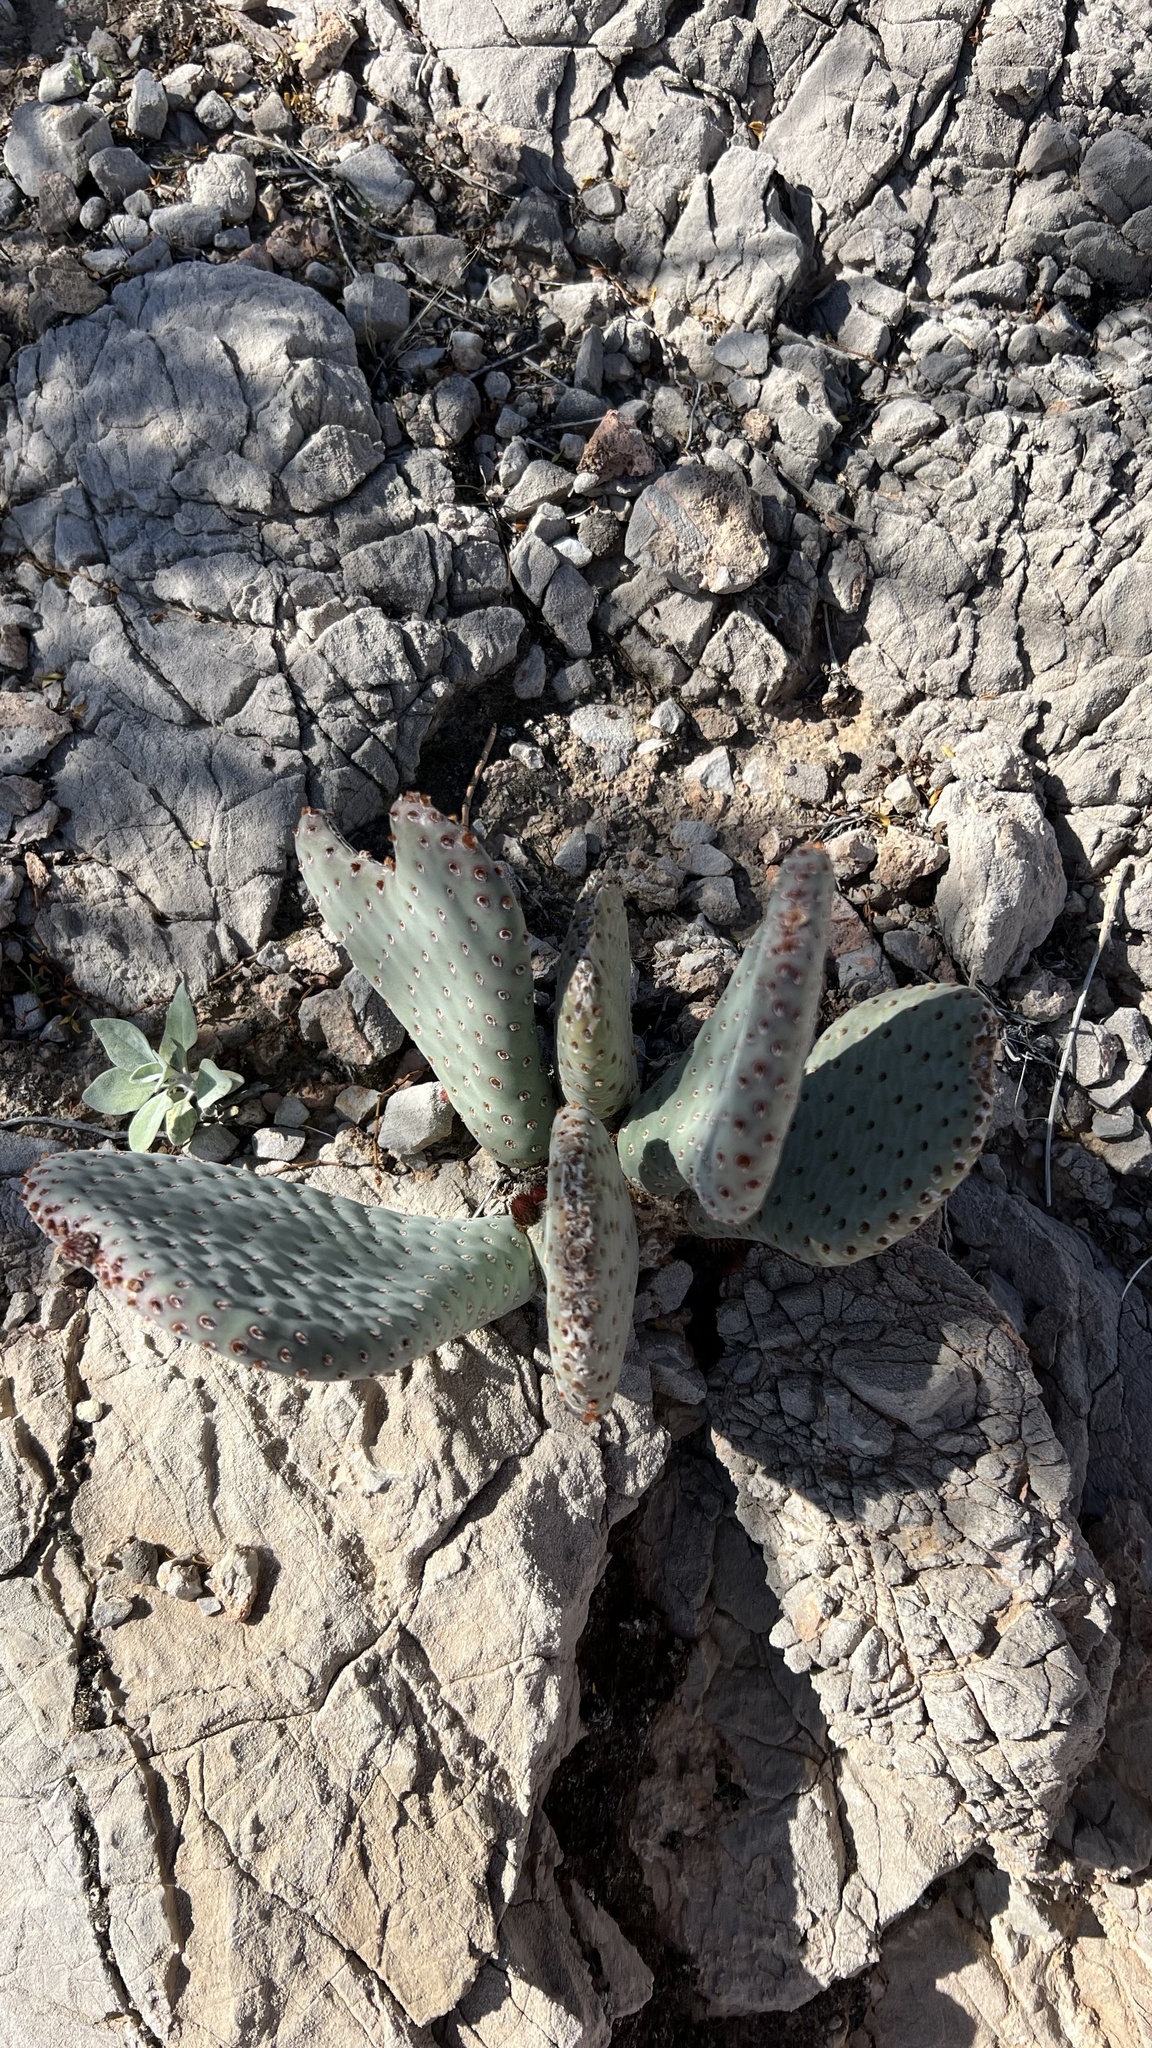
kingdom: Plantae
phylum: Tracheophyta
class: Magnoliopsida
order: Caryophyllales
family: Cactaceae
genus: Opuntia
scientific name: Opuntia basilaris
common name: Beavertail prickly-pear
